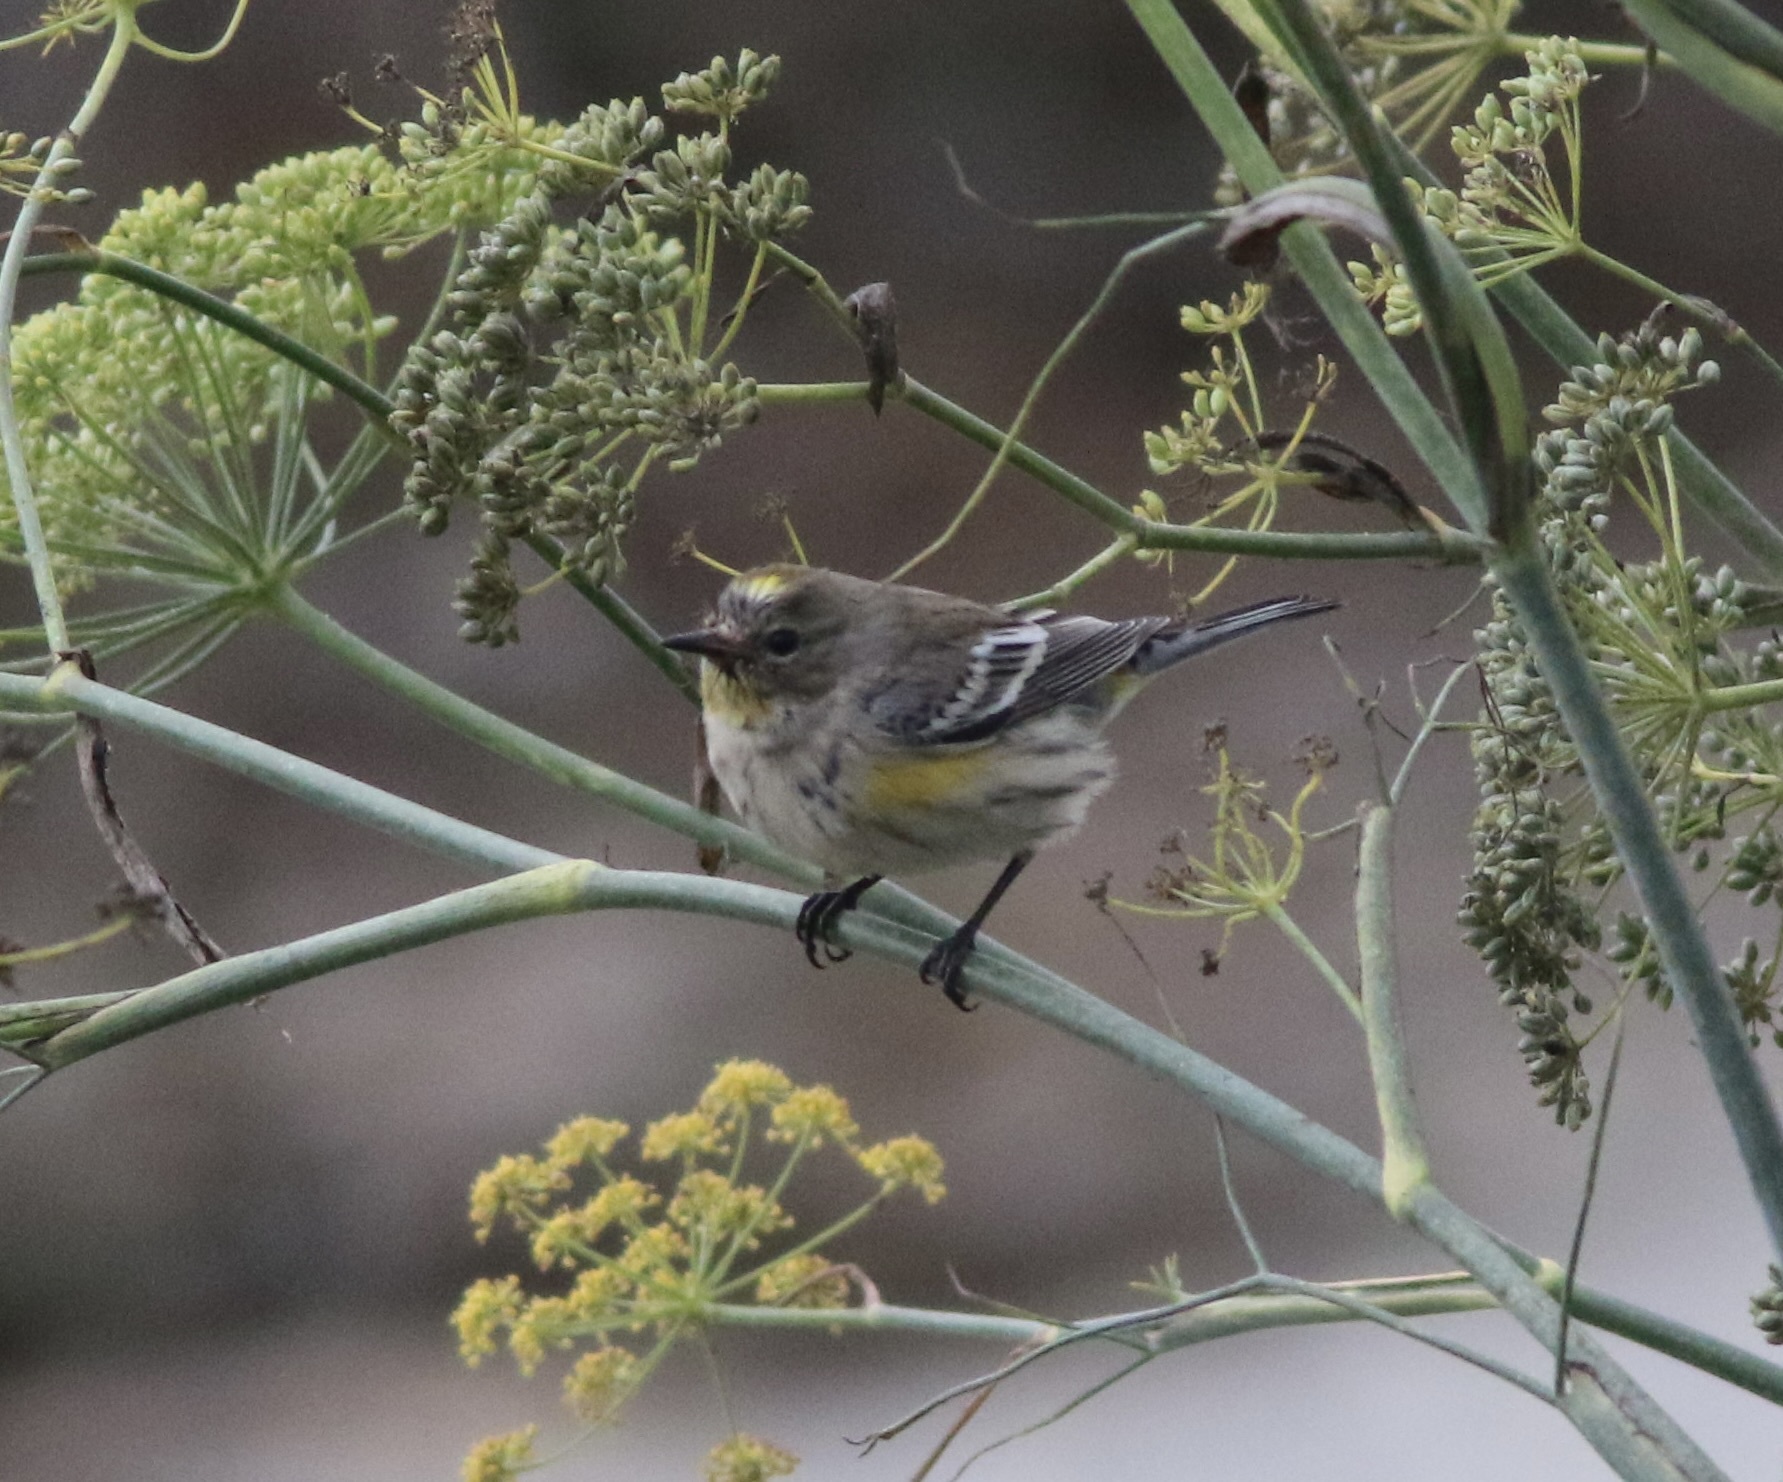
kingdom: Animalia
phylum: Chordata
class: Aves
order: Passeriformes
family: Parulidae
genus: Setophaga
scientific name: Setophaga coronata
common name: Myrtle warbler
